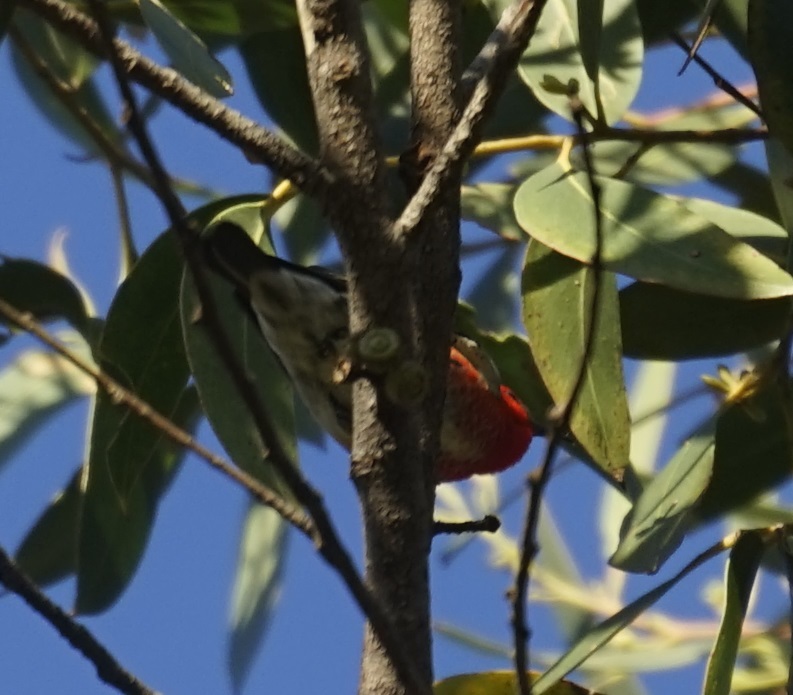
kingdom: Animalia
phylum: Chordata
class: Aves
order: Passeriformes
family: Meliphagidae
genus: Myzomela
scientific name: Myzomela sanguinolenta
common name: Scarlet myzomela
